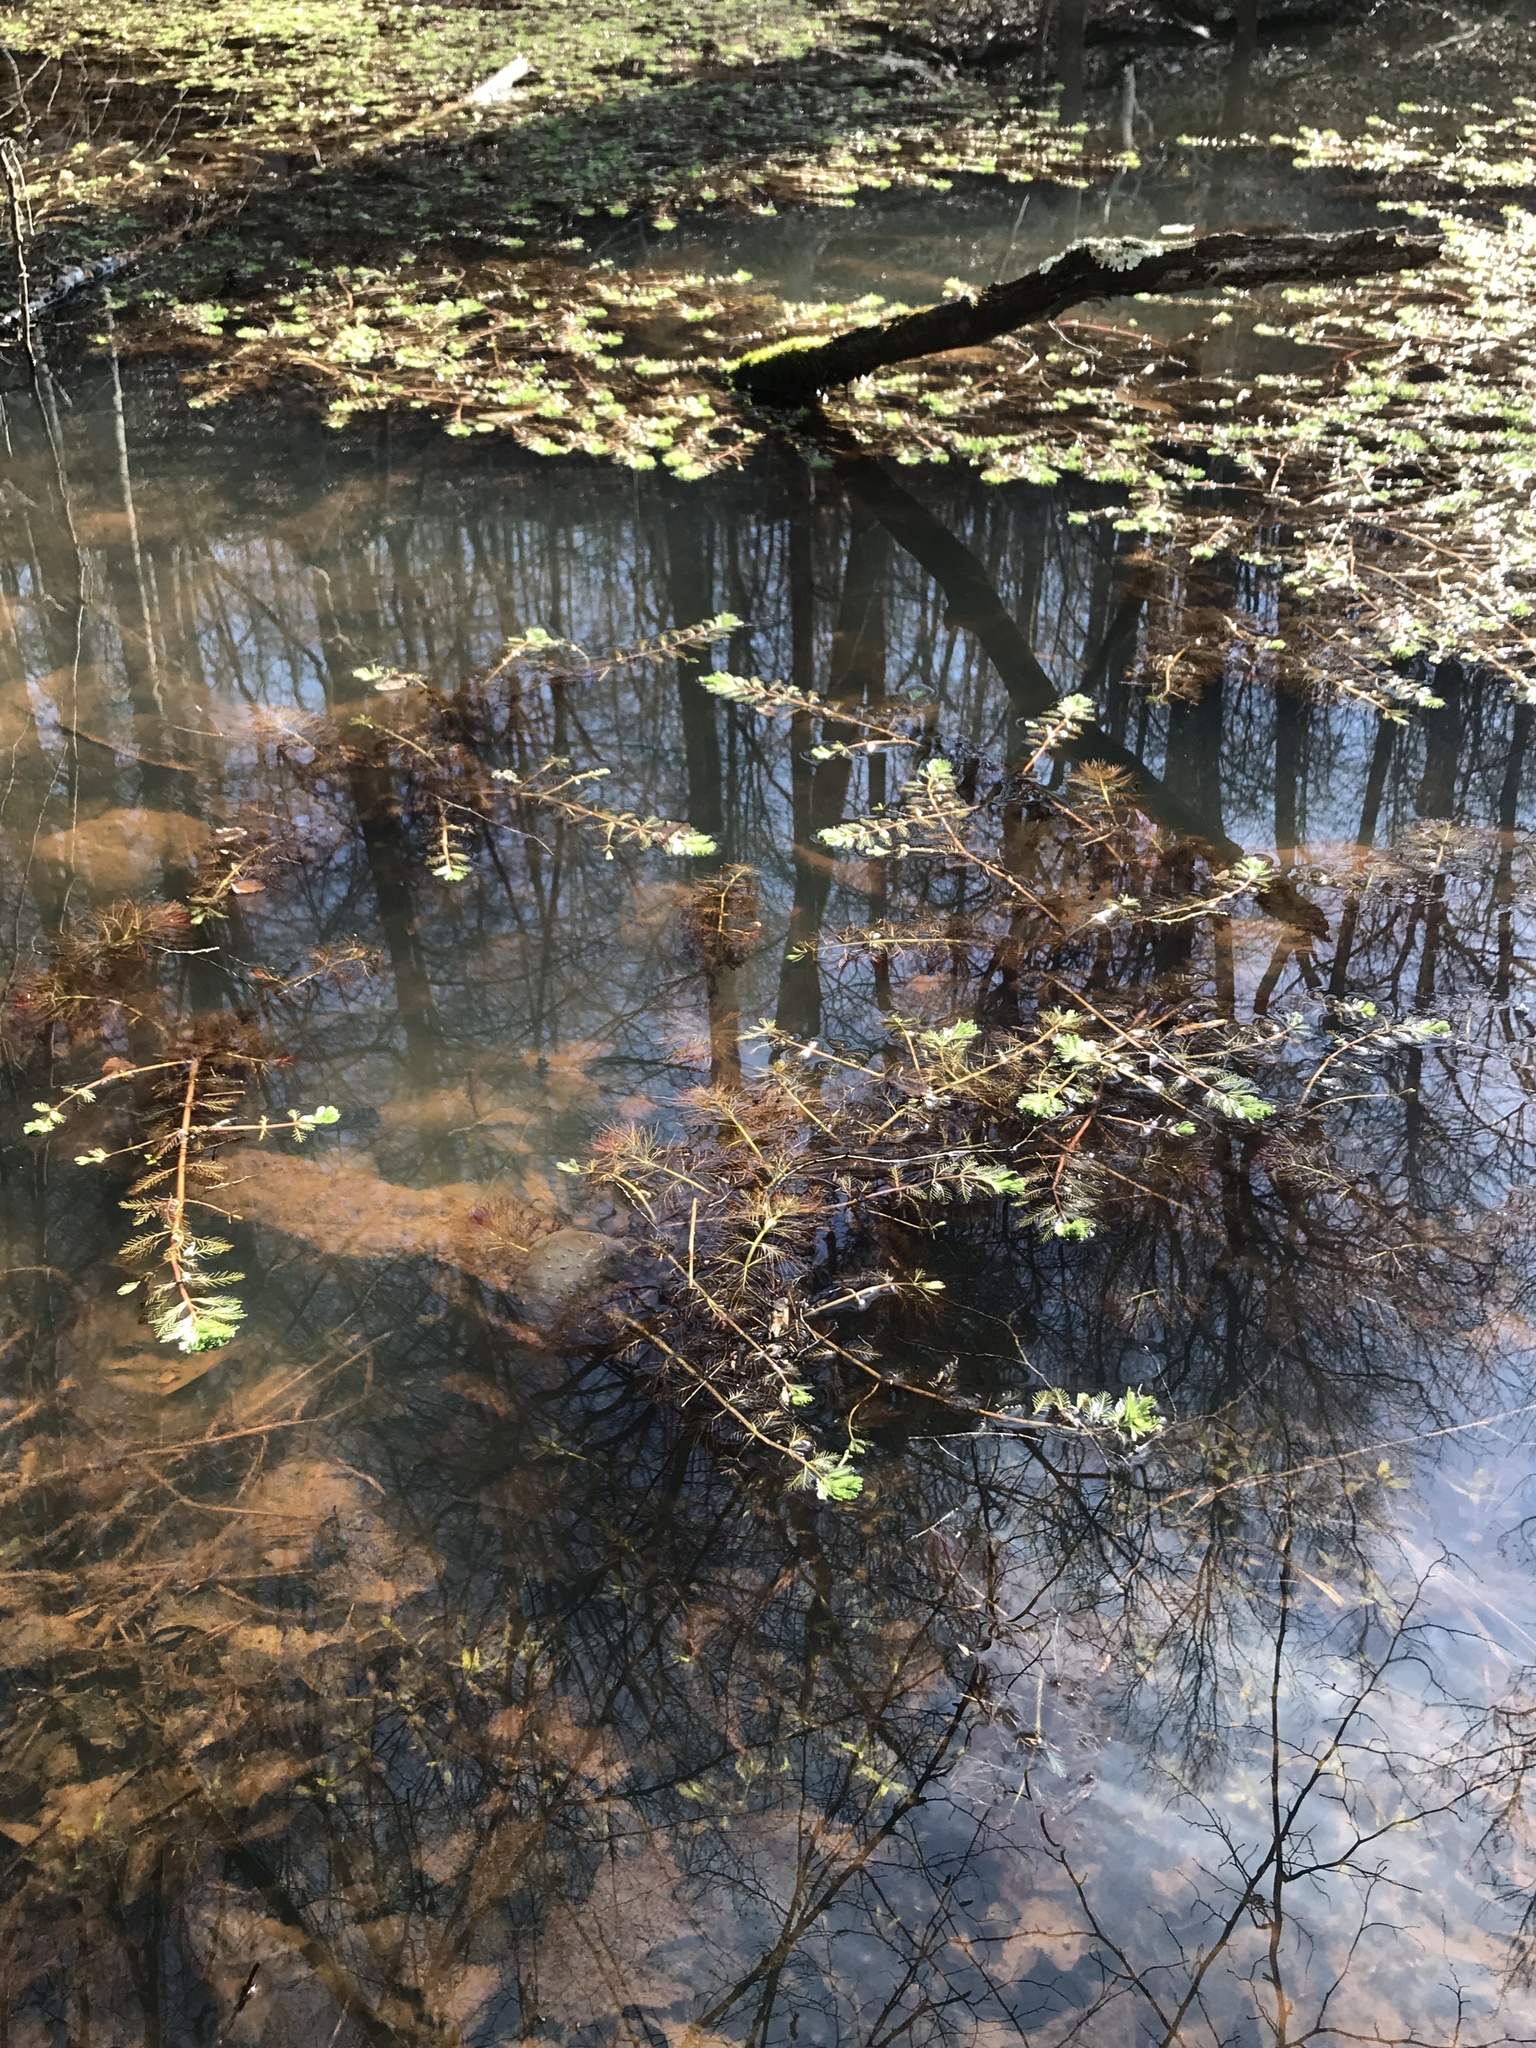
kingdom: Plantae
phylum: Tracheophyta
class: Magnoliopsida
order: Saxifragales
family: Haloragaceae
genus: Myriophyllum
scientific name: Myriophyllum aquaticum
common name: Parrot's feather
